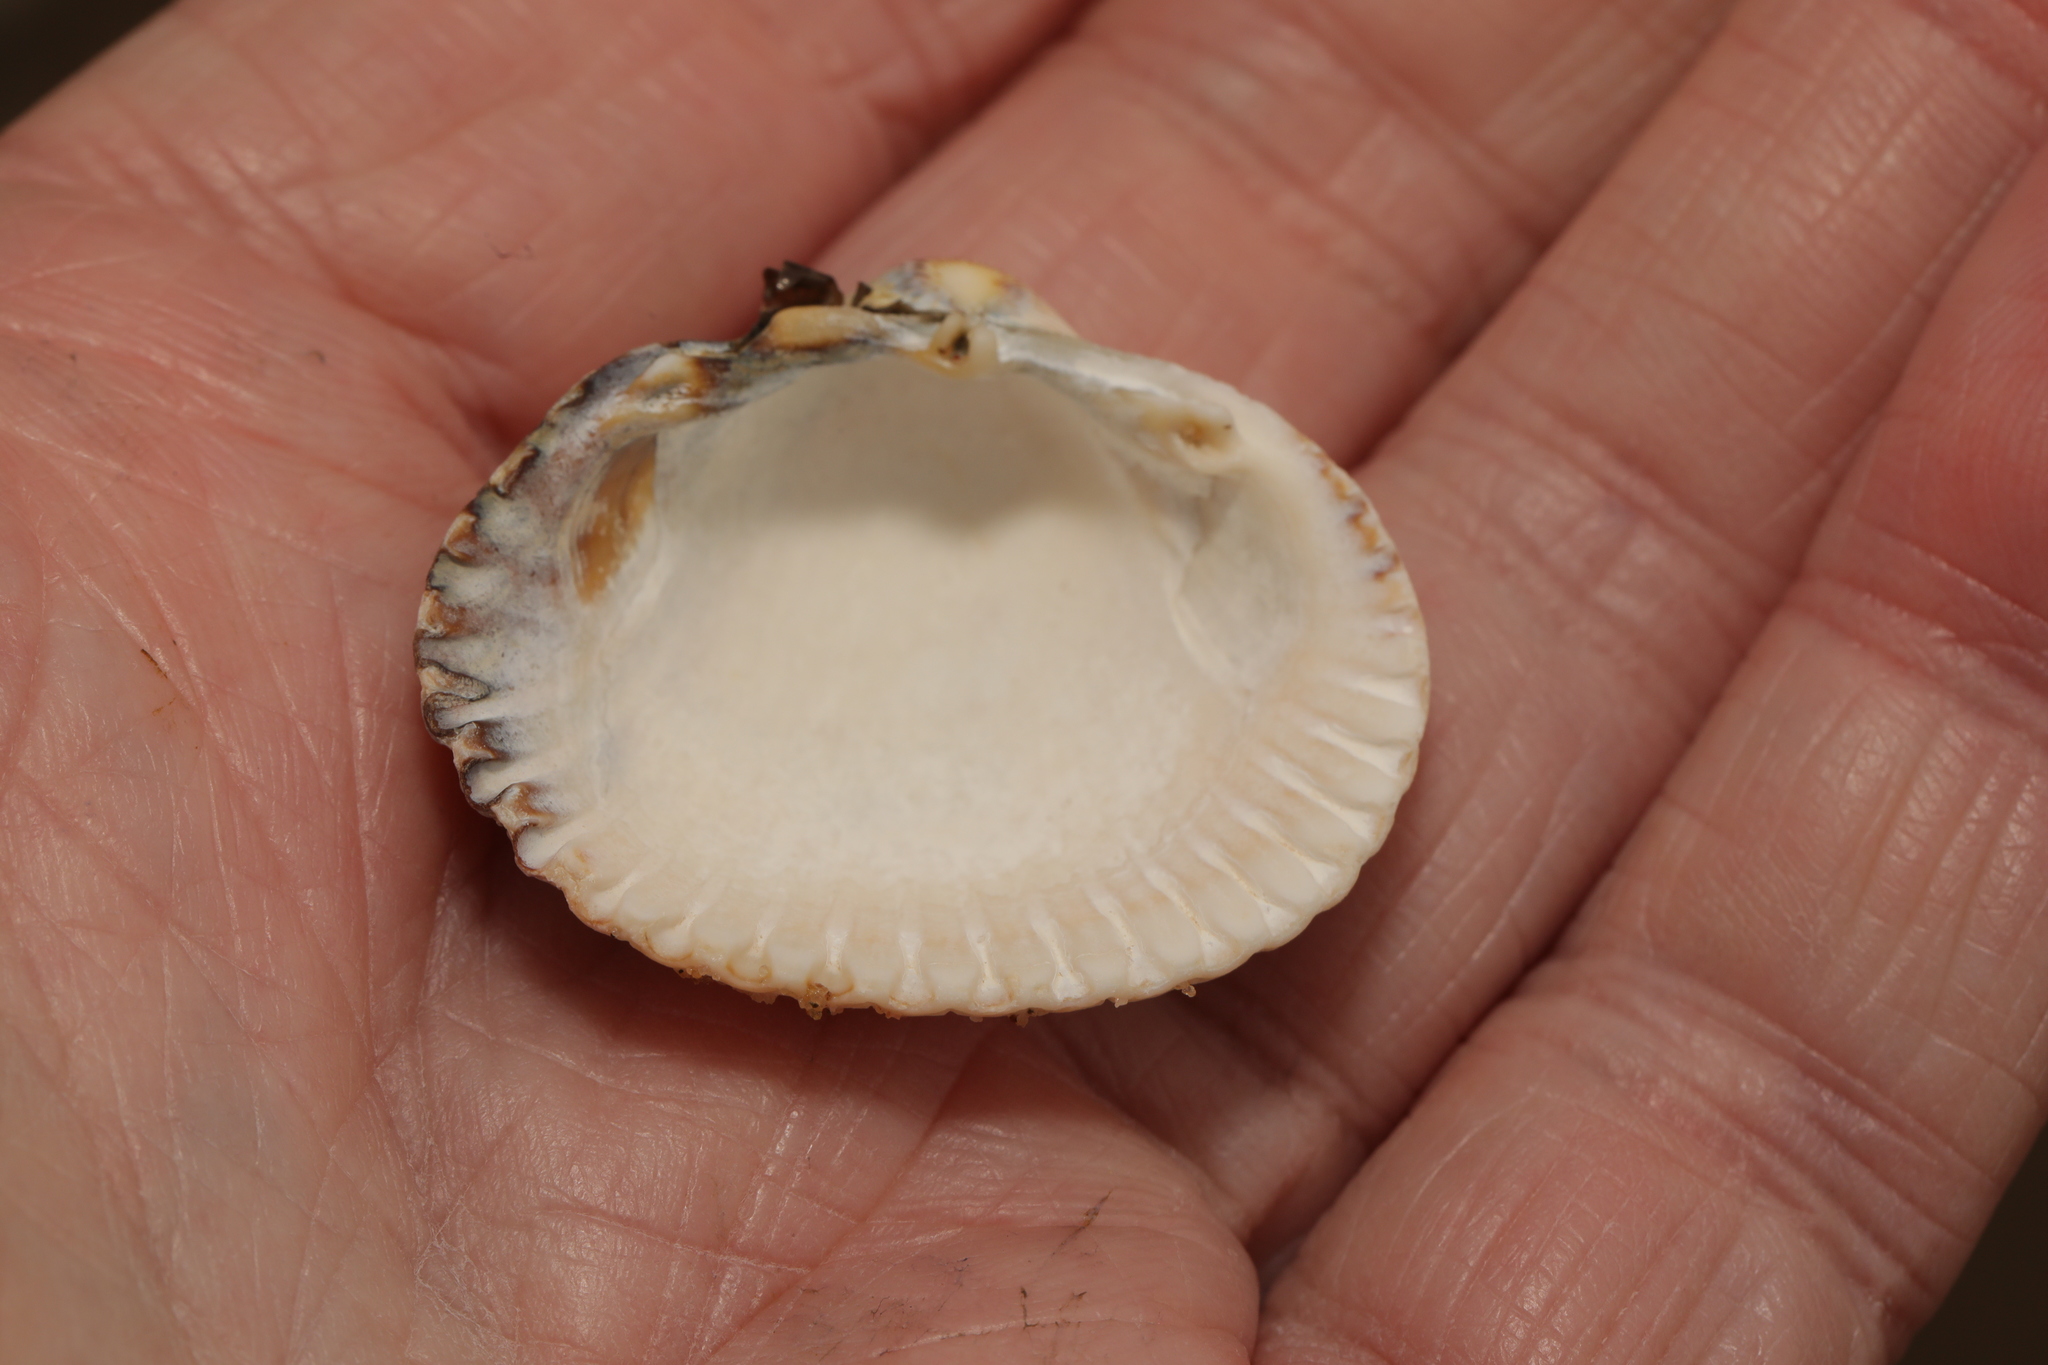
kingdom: Animalia
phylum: Mollusca
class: Bivalvia
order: Cardiida
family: Cardiidae
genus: Cerastoderma
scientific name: Cerastoderma edule
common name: Common cockle
